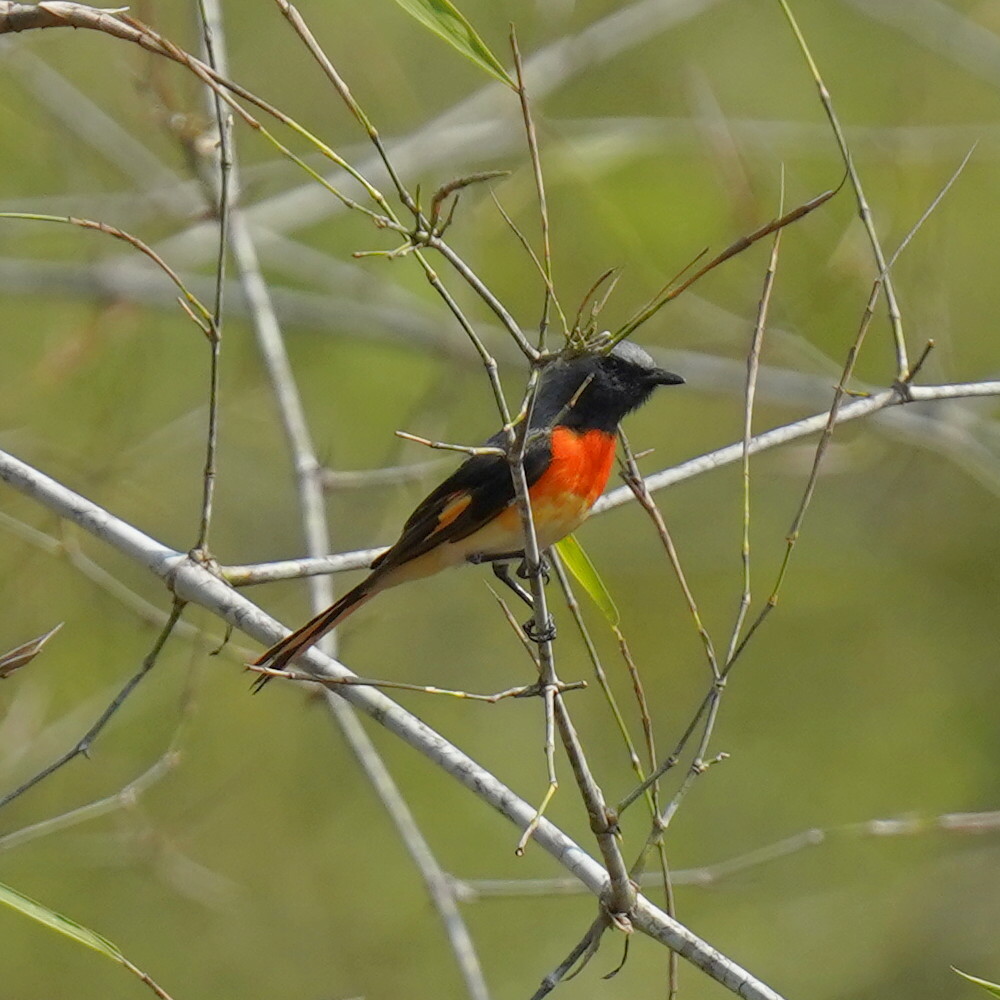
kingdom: Animalia
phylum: Chordata
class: Aves
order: Passeriformes
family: Campephagidae
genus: Pericrocotus
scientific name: Pericrocotus cinnamomeus
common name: Small minivet
